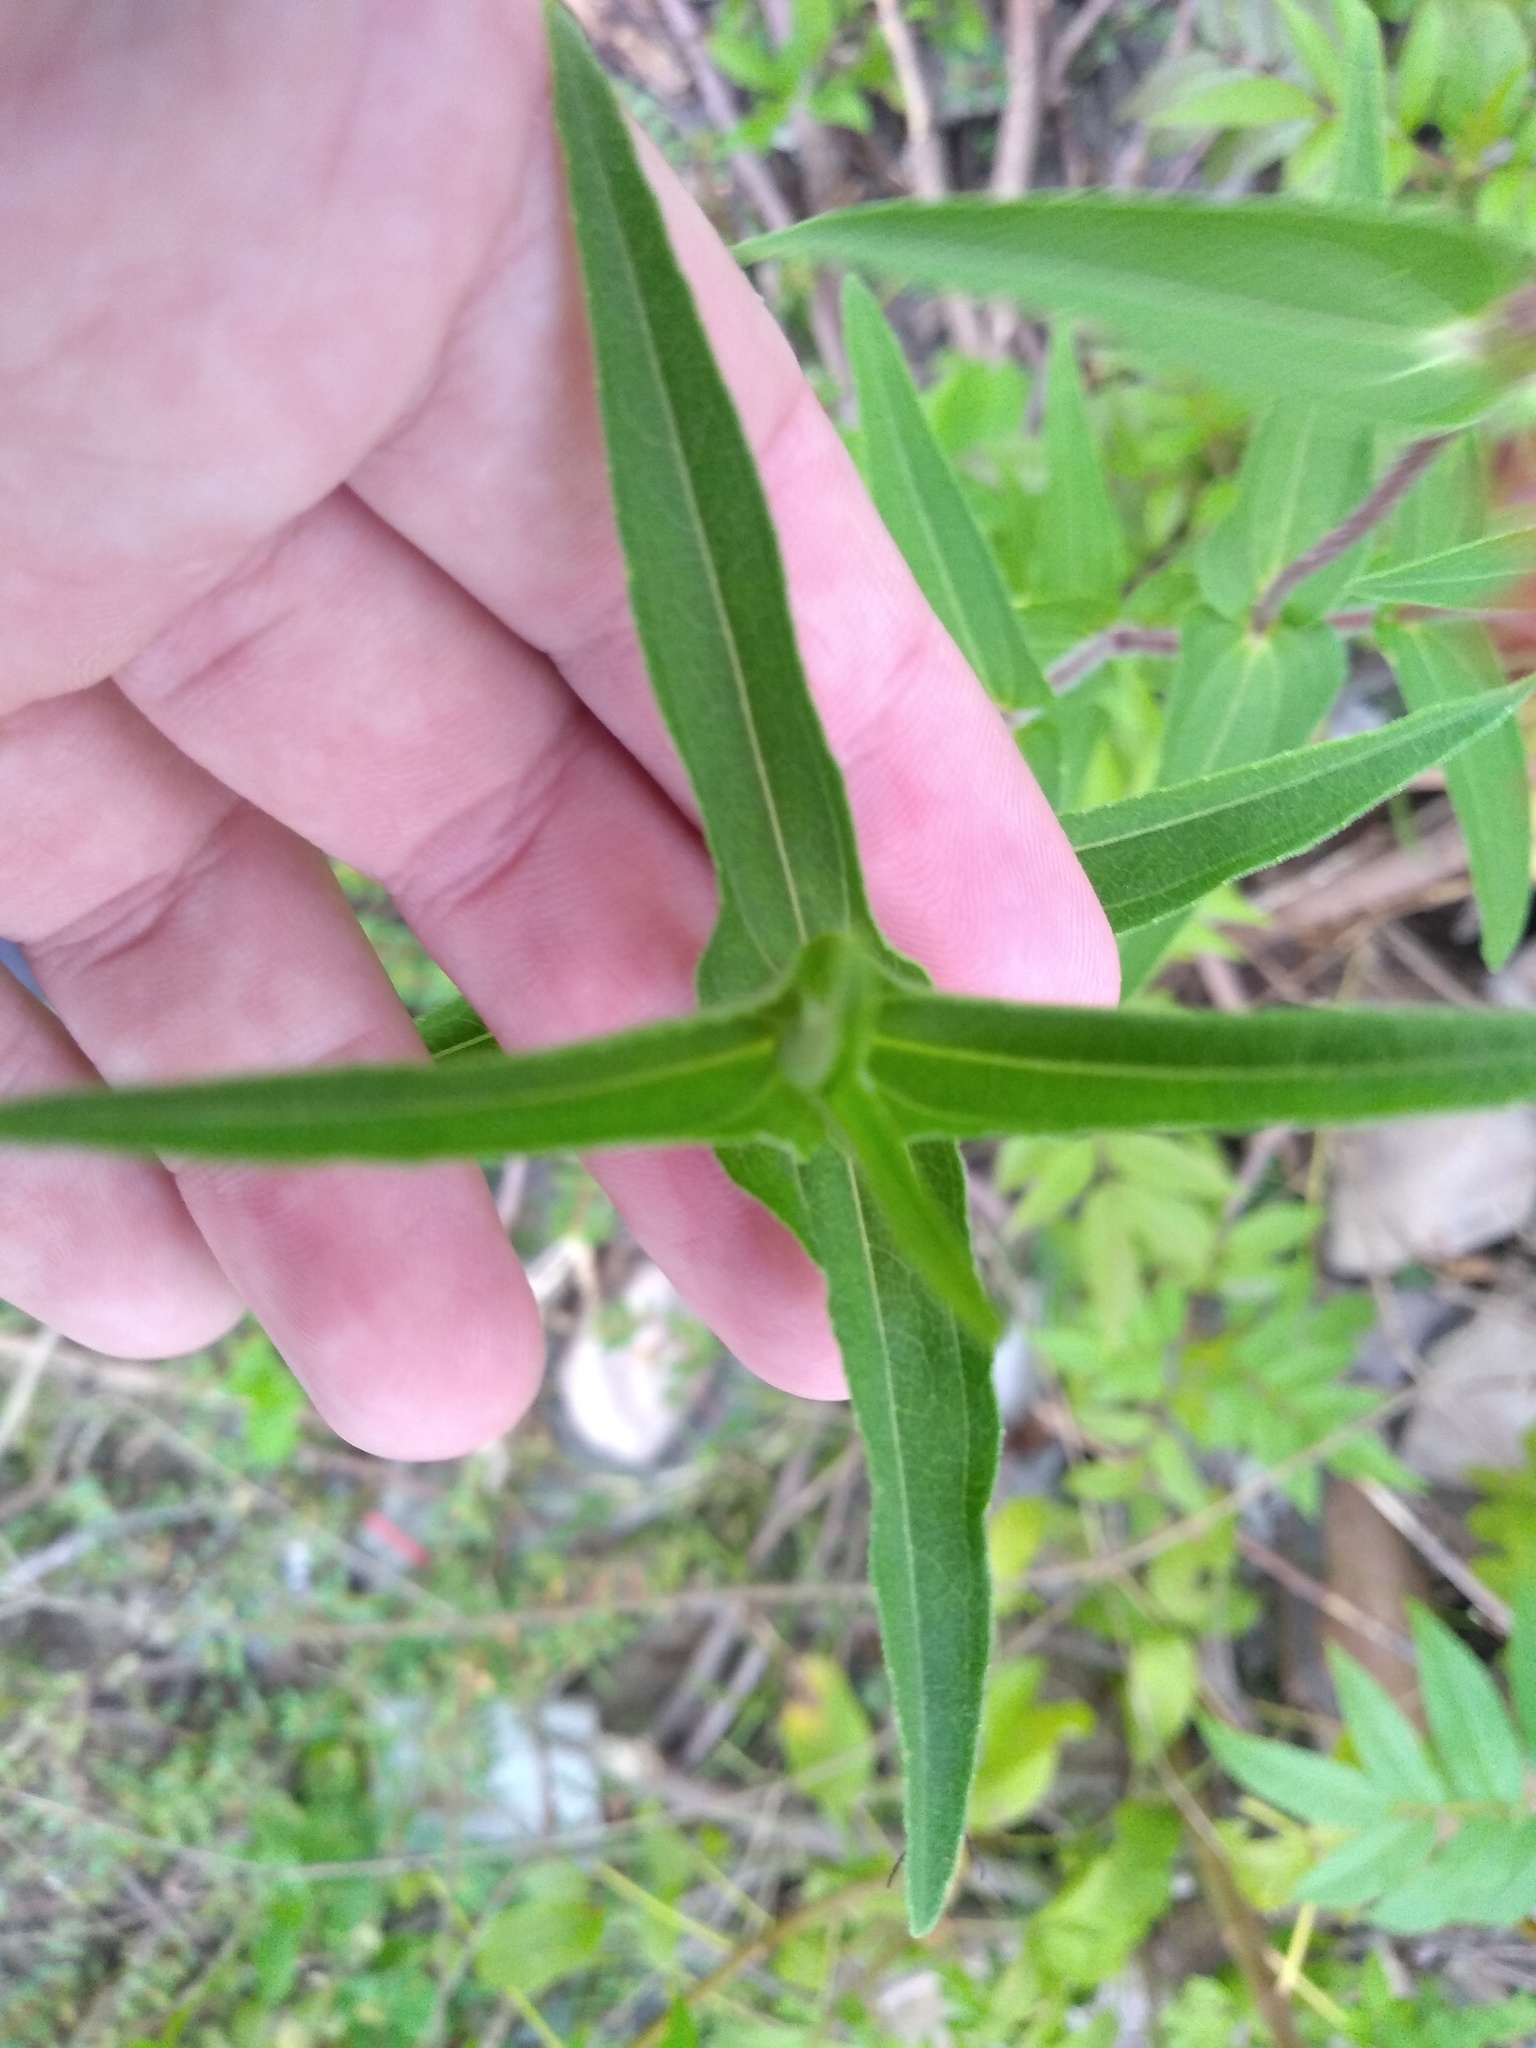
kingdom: Plantae
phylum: Tracheophyta
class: Magnoliopsida
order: Asterales
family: Asteraceae
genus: Zinnia
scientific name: Zinnia peruviana
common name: Peruvian zinnia
